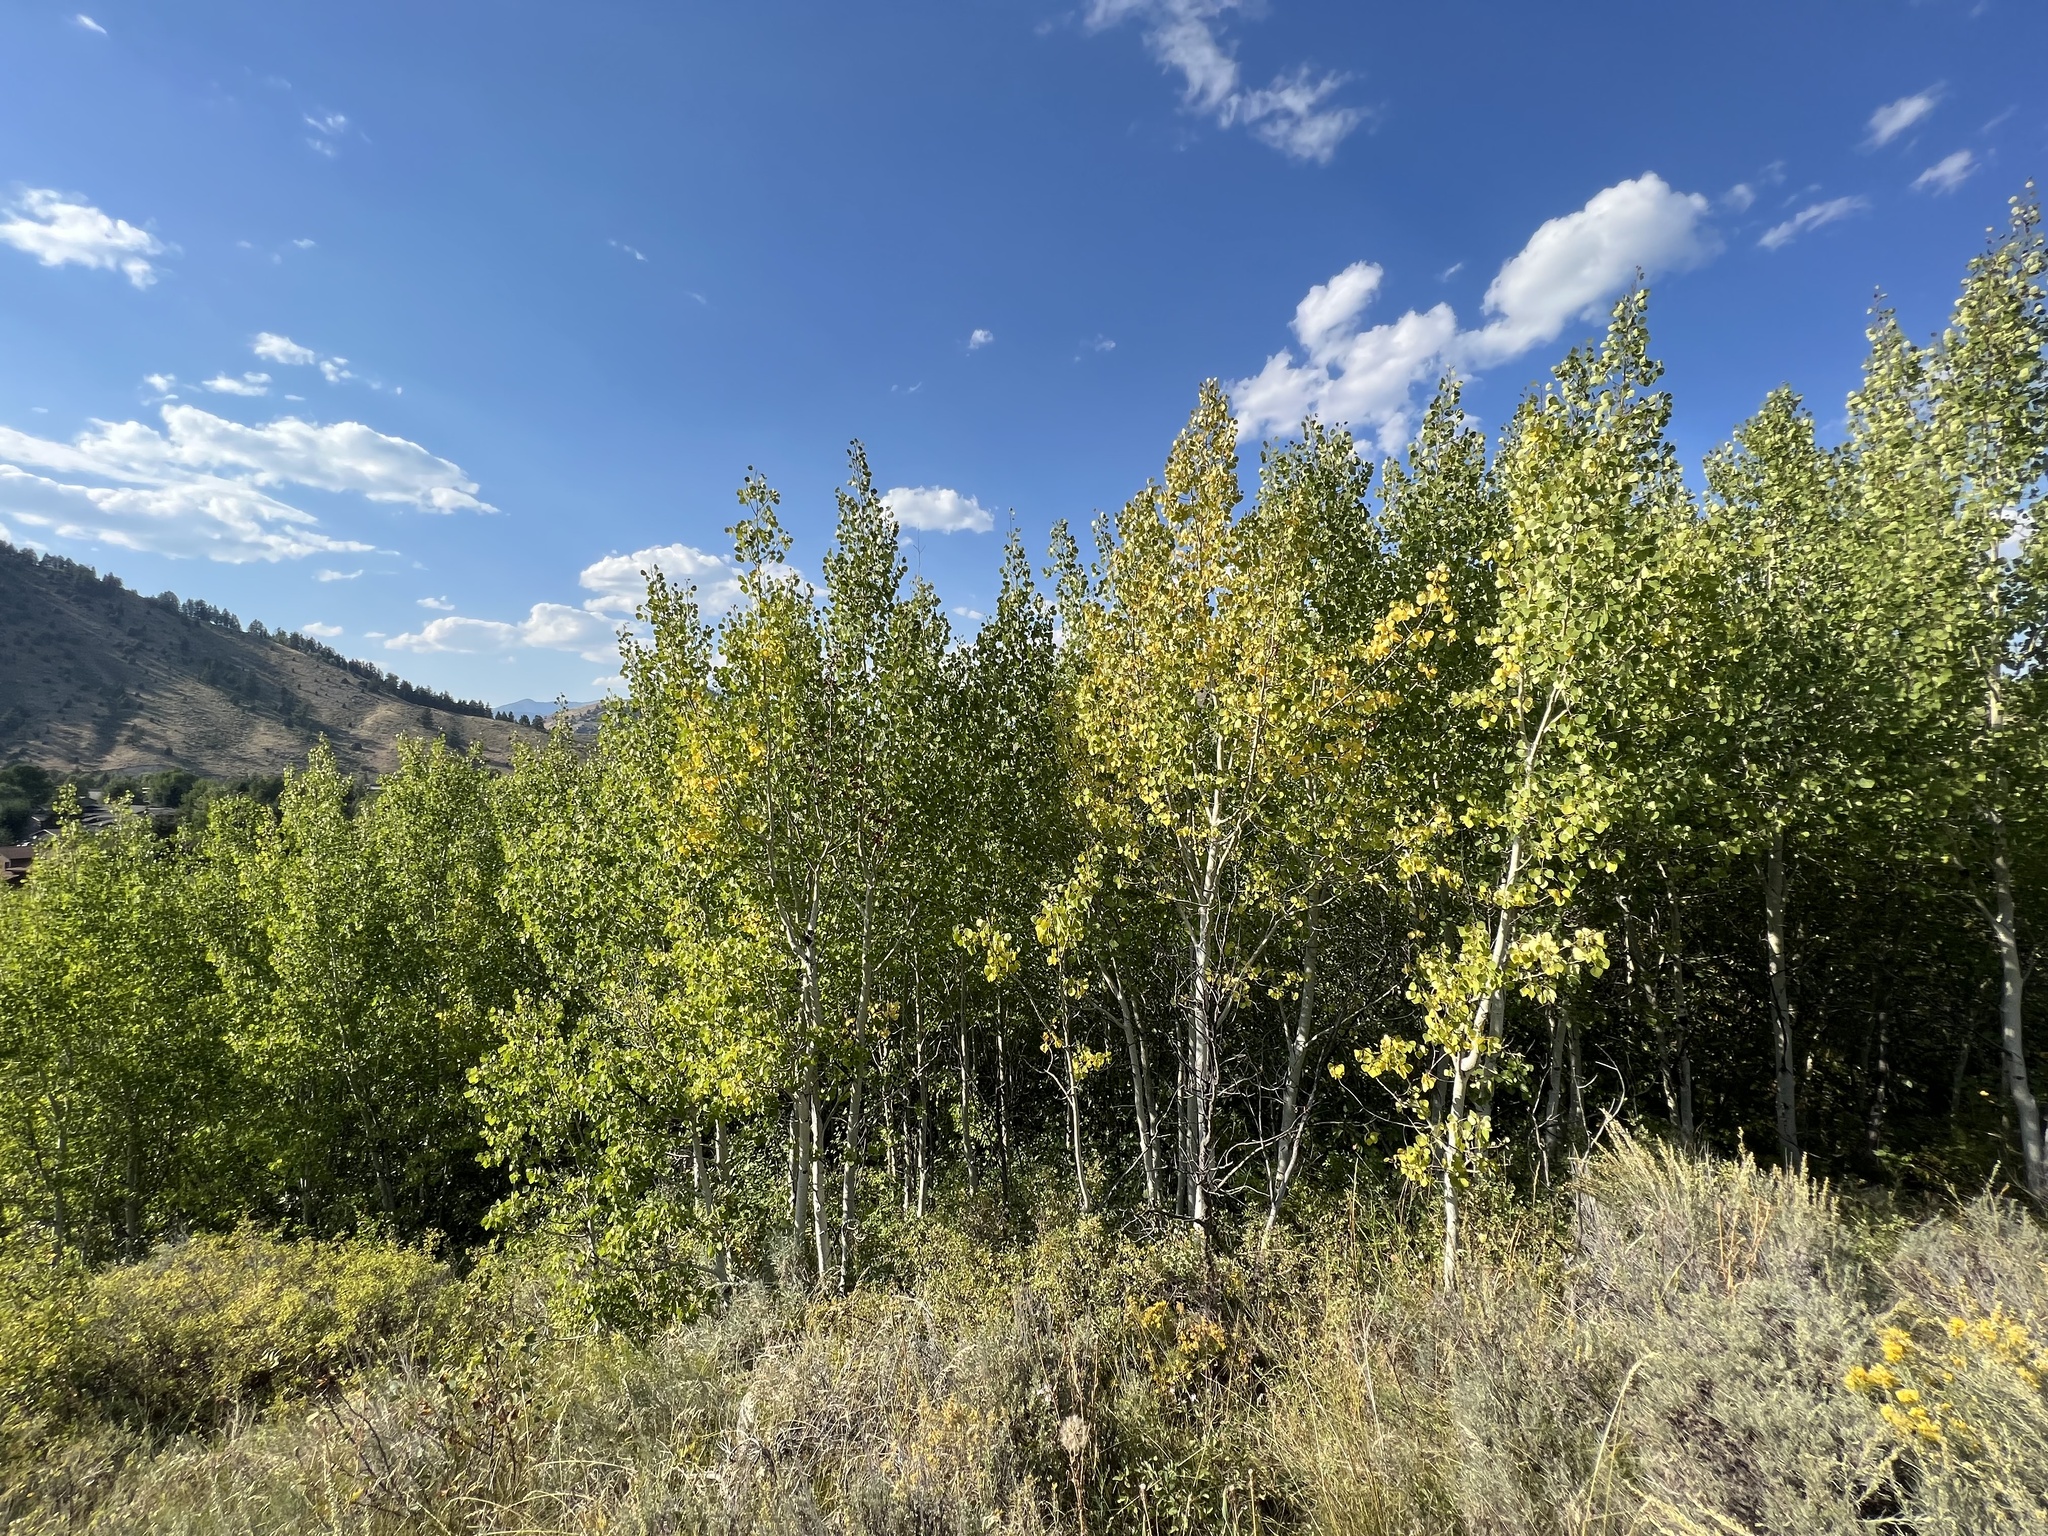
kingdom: Plantae
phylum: Tracheophyta
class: Magnoliopsida
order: Malpighiales
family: Salicaceae
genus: Populus
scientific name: Populus tremuloides
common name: Quaking aspen
